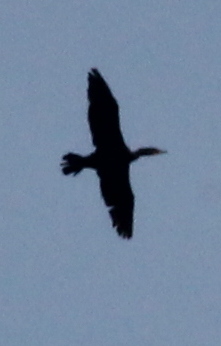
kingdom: Animalia
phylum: Chordata
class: Aves
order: Suliformes
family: Phalacrocoracidae
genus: Phalacrocorax
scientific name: Phalacrocorax auritus
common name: Double-crested cormorant
